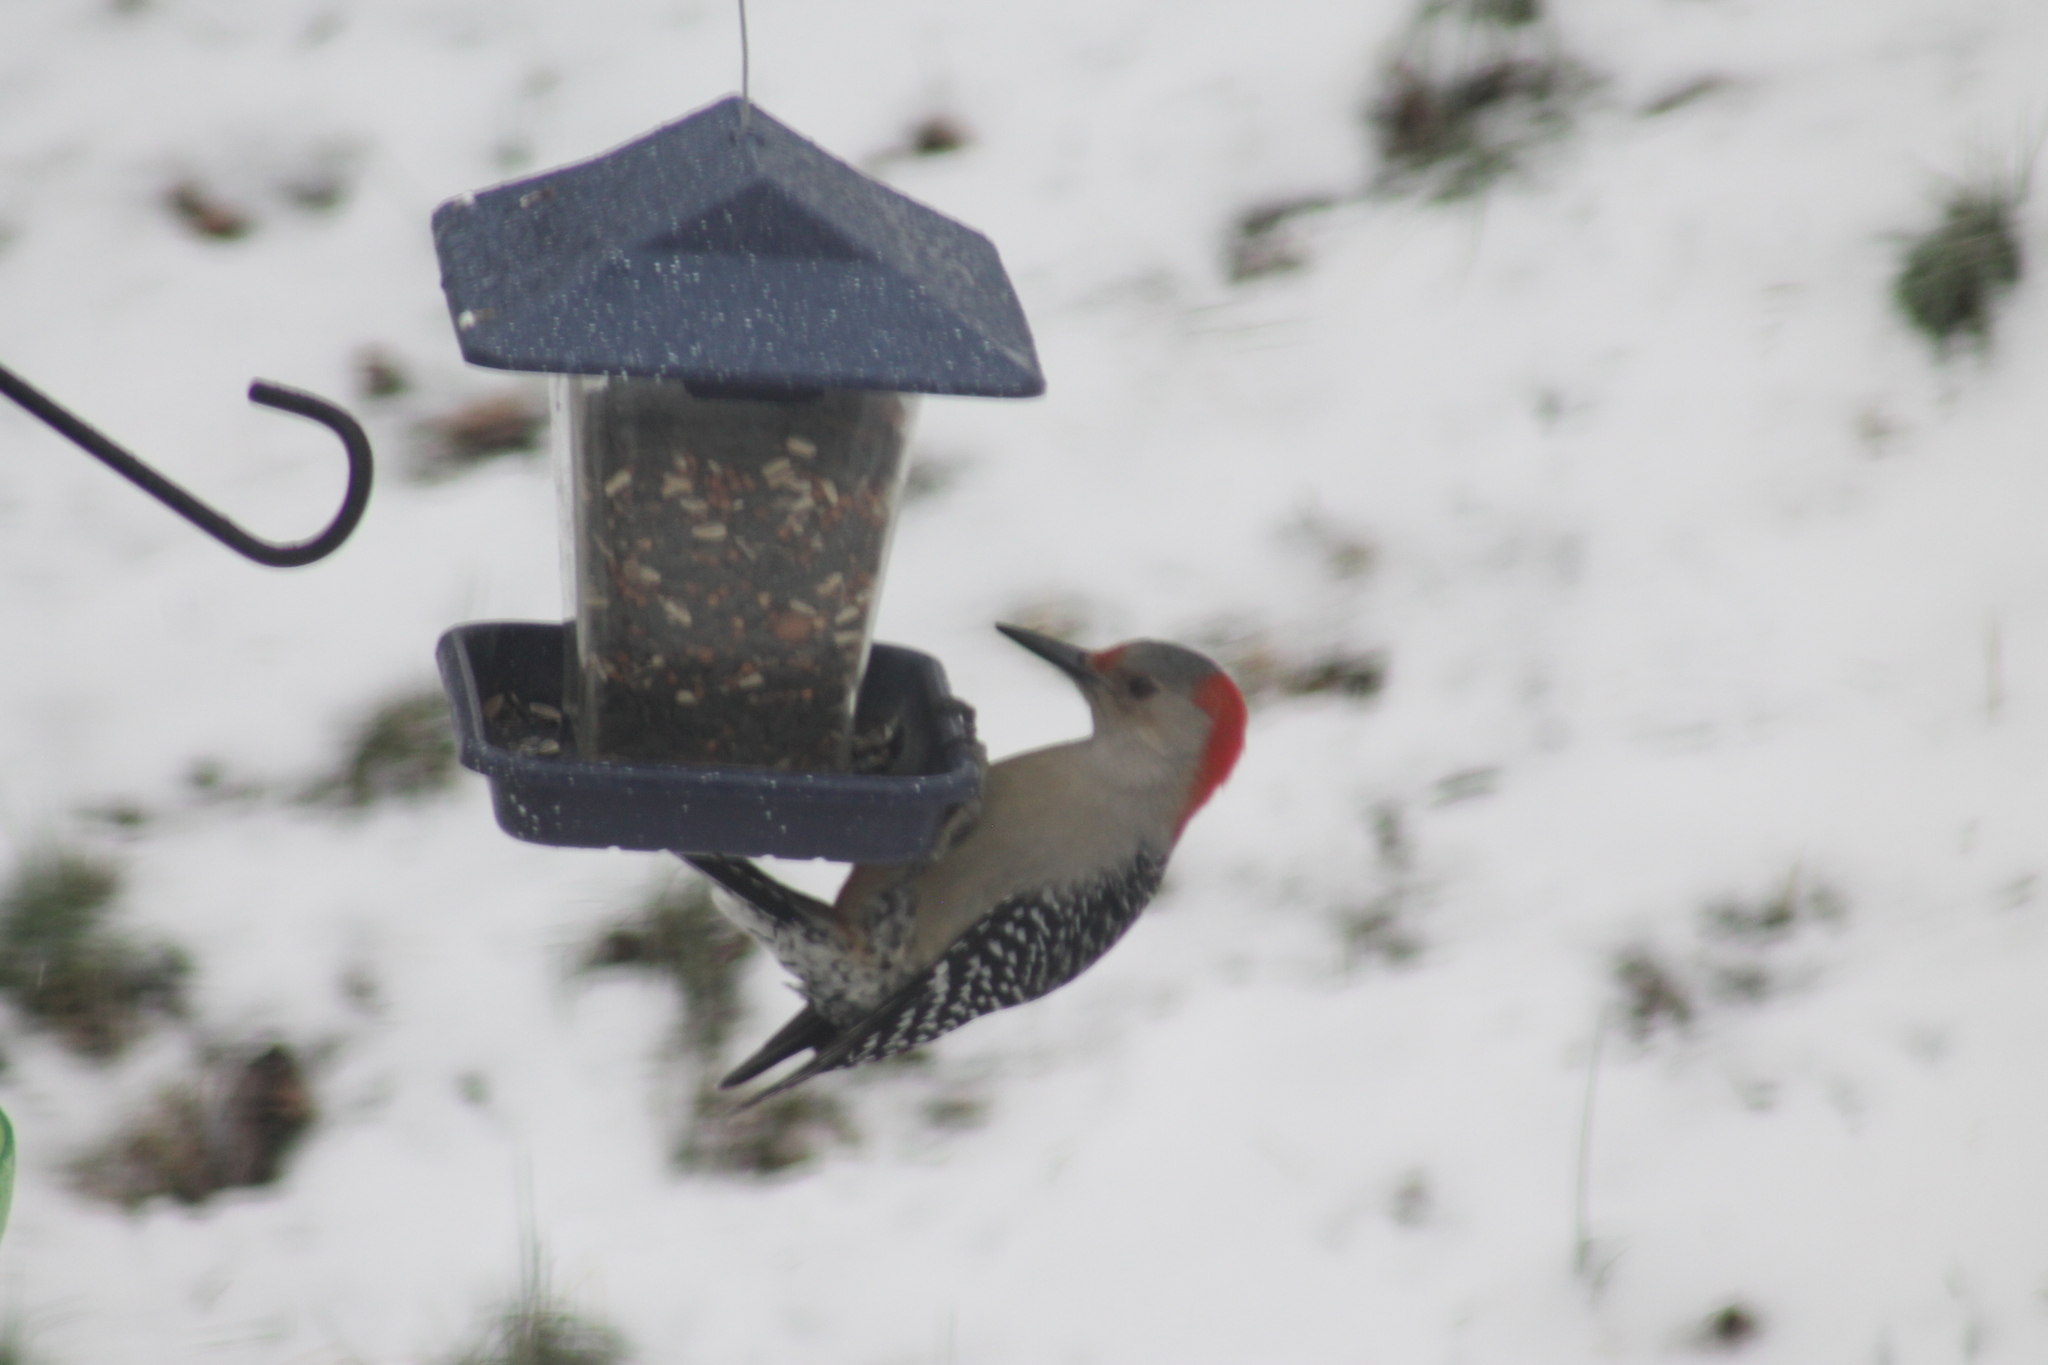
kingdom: Animalia
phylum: Chordata
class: Aves
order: Piciformes
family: Picidae
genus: Melanerpes
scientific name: Melanerpes carolinus
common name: Red-bellied woodpecker
